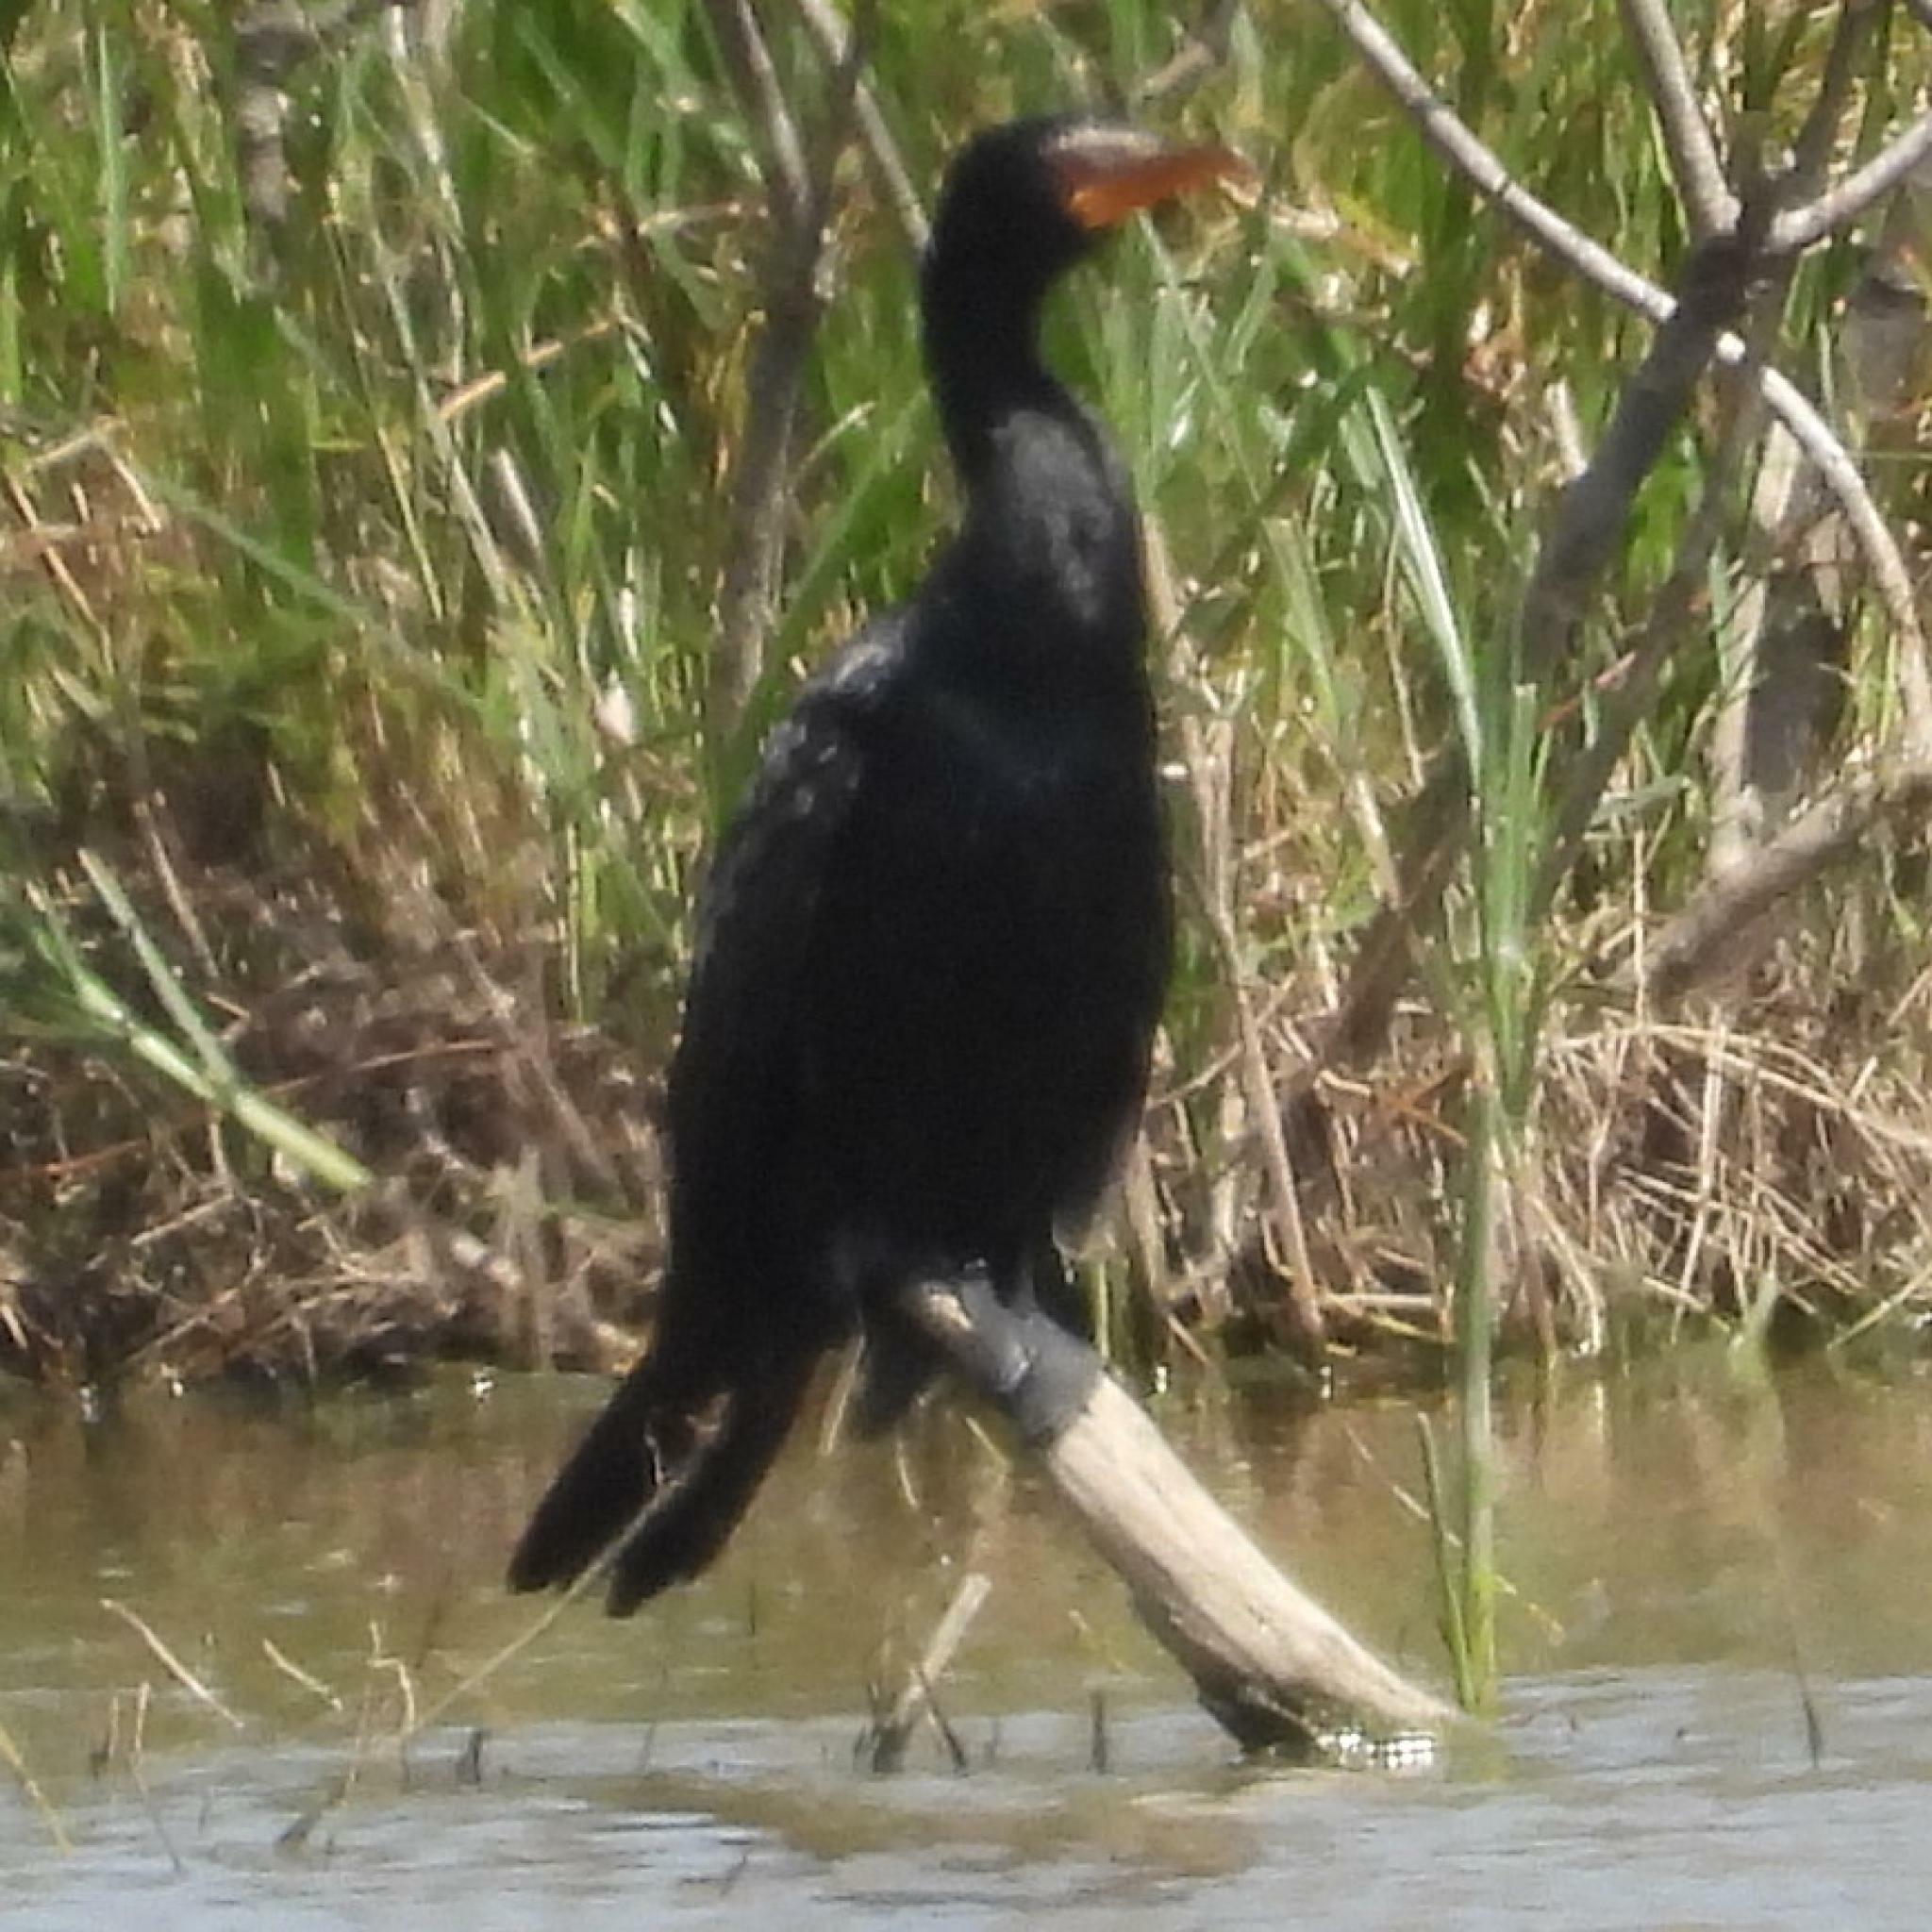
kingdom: Animalia
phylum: Chordata
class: Aves
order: Suliformes
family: Phalacrocoracidae
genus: Microcarbo
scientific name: Microcarbo africanus
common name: Long-tailed cormorant
